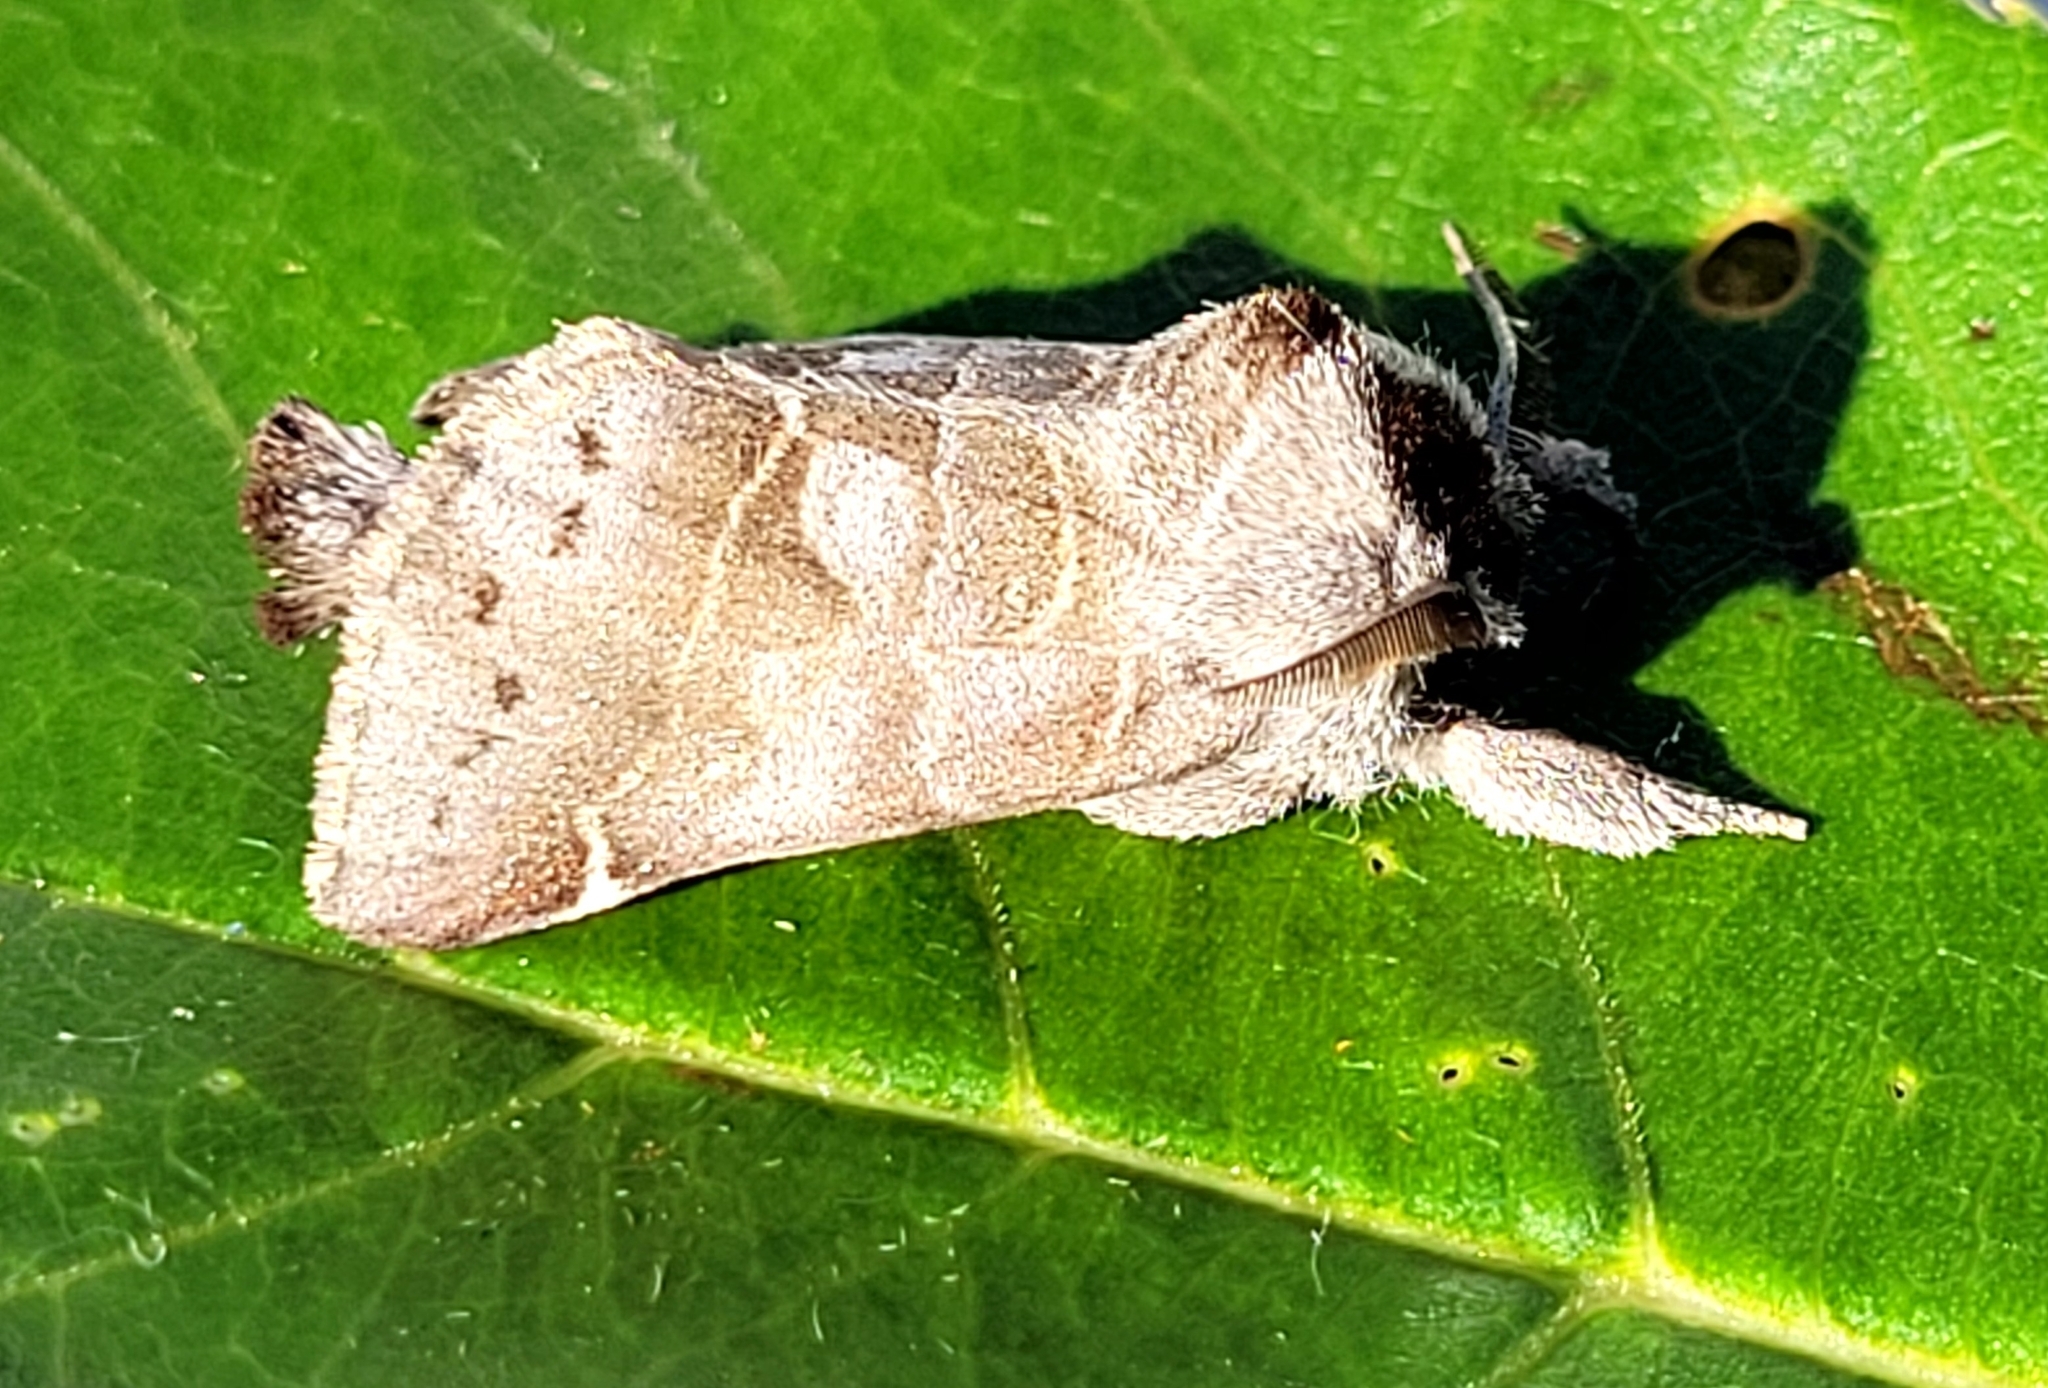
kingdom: Animalia
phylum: Arthropoda
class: Insecta
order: Lepidoptera
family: Notodontidae
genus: Clostera
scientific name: Clostera brucei
